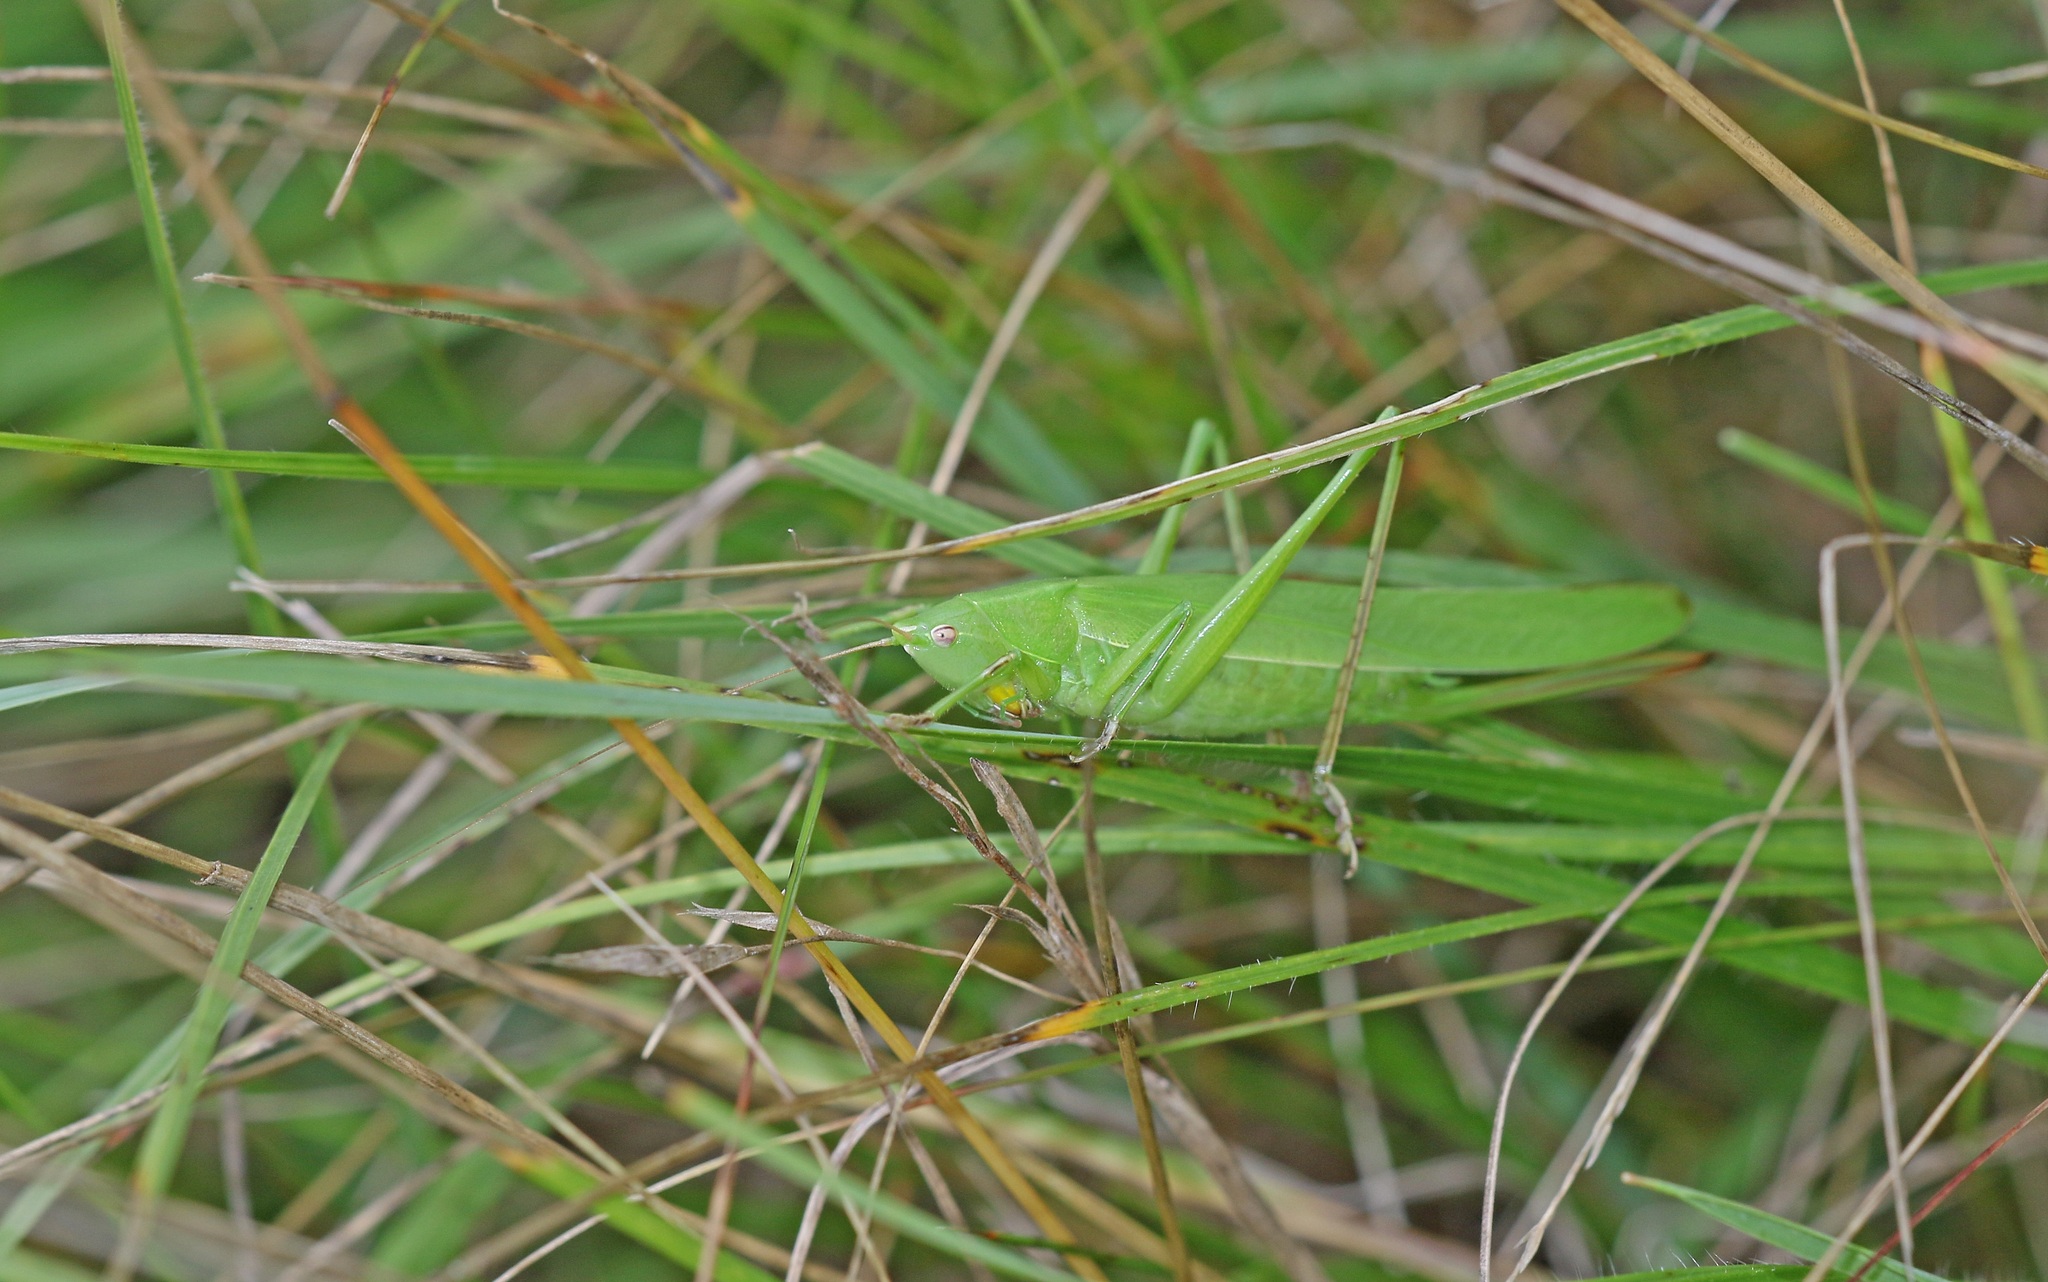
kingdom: Animalia
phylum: Arthropoda
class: Insecta
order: Orthoptera
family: Tettigoniidae
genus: Ruspolia
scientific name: Ruspolia nitidula
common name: Large conehead
